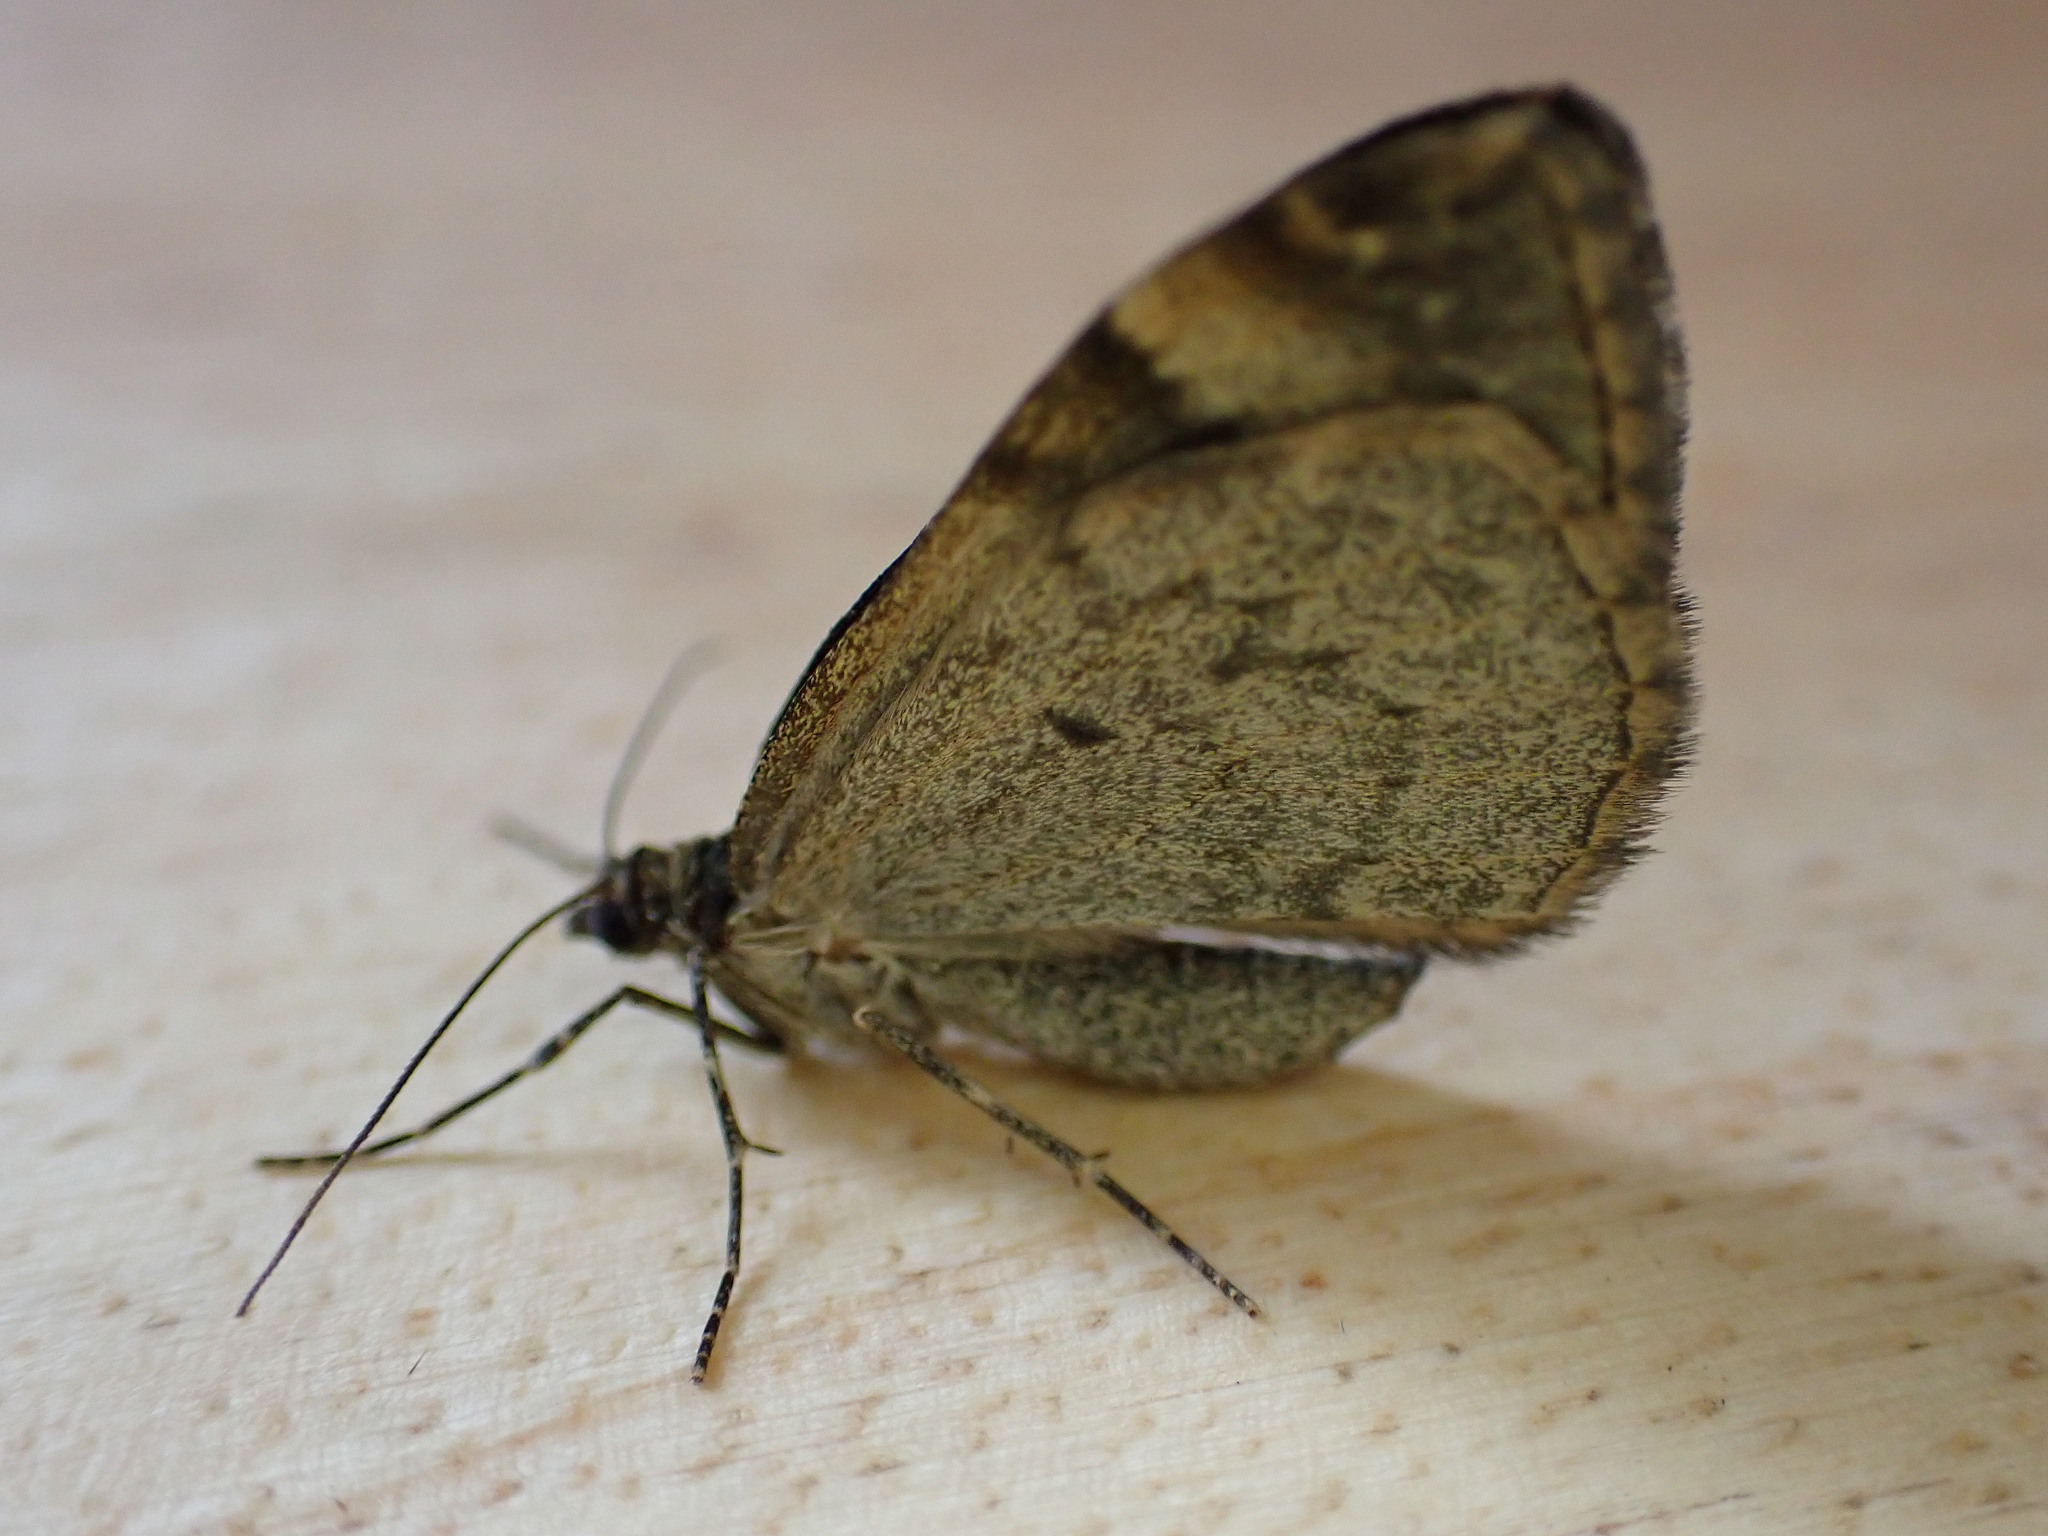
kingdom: Animalia
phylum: Arthropoda
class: Insecta
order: Lepidoptera
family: Geometridae
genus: Dysstroma
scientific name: Dysstroma truncata
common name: Common marbled carpet
